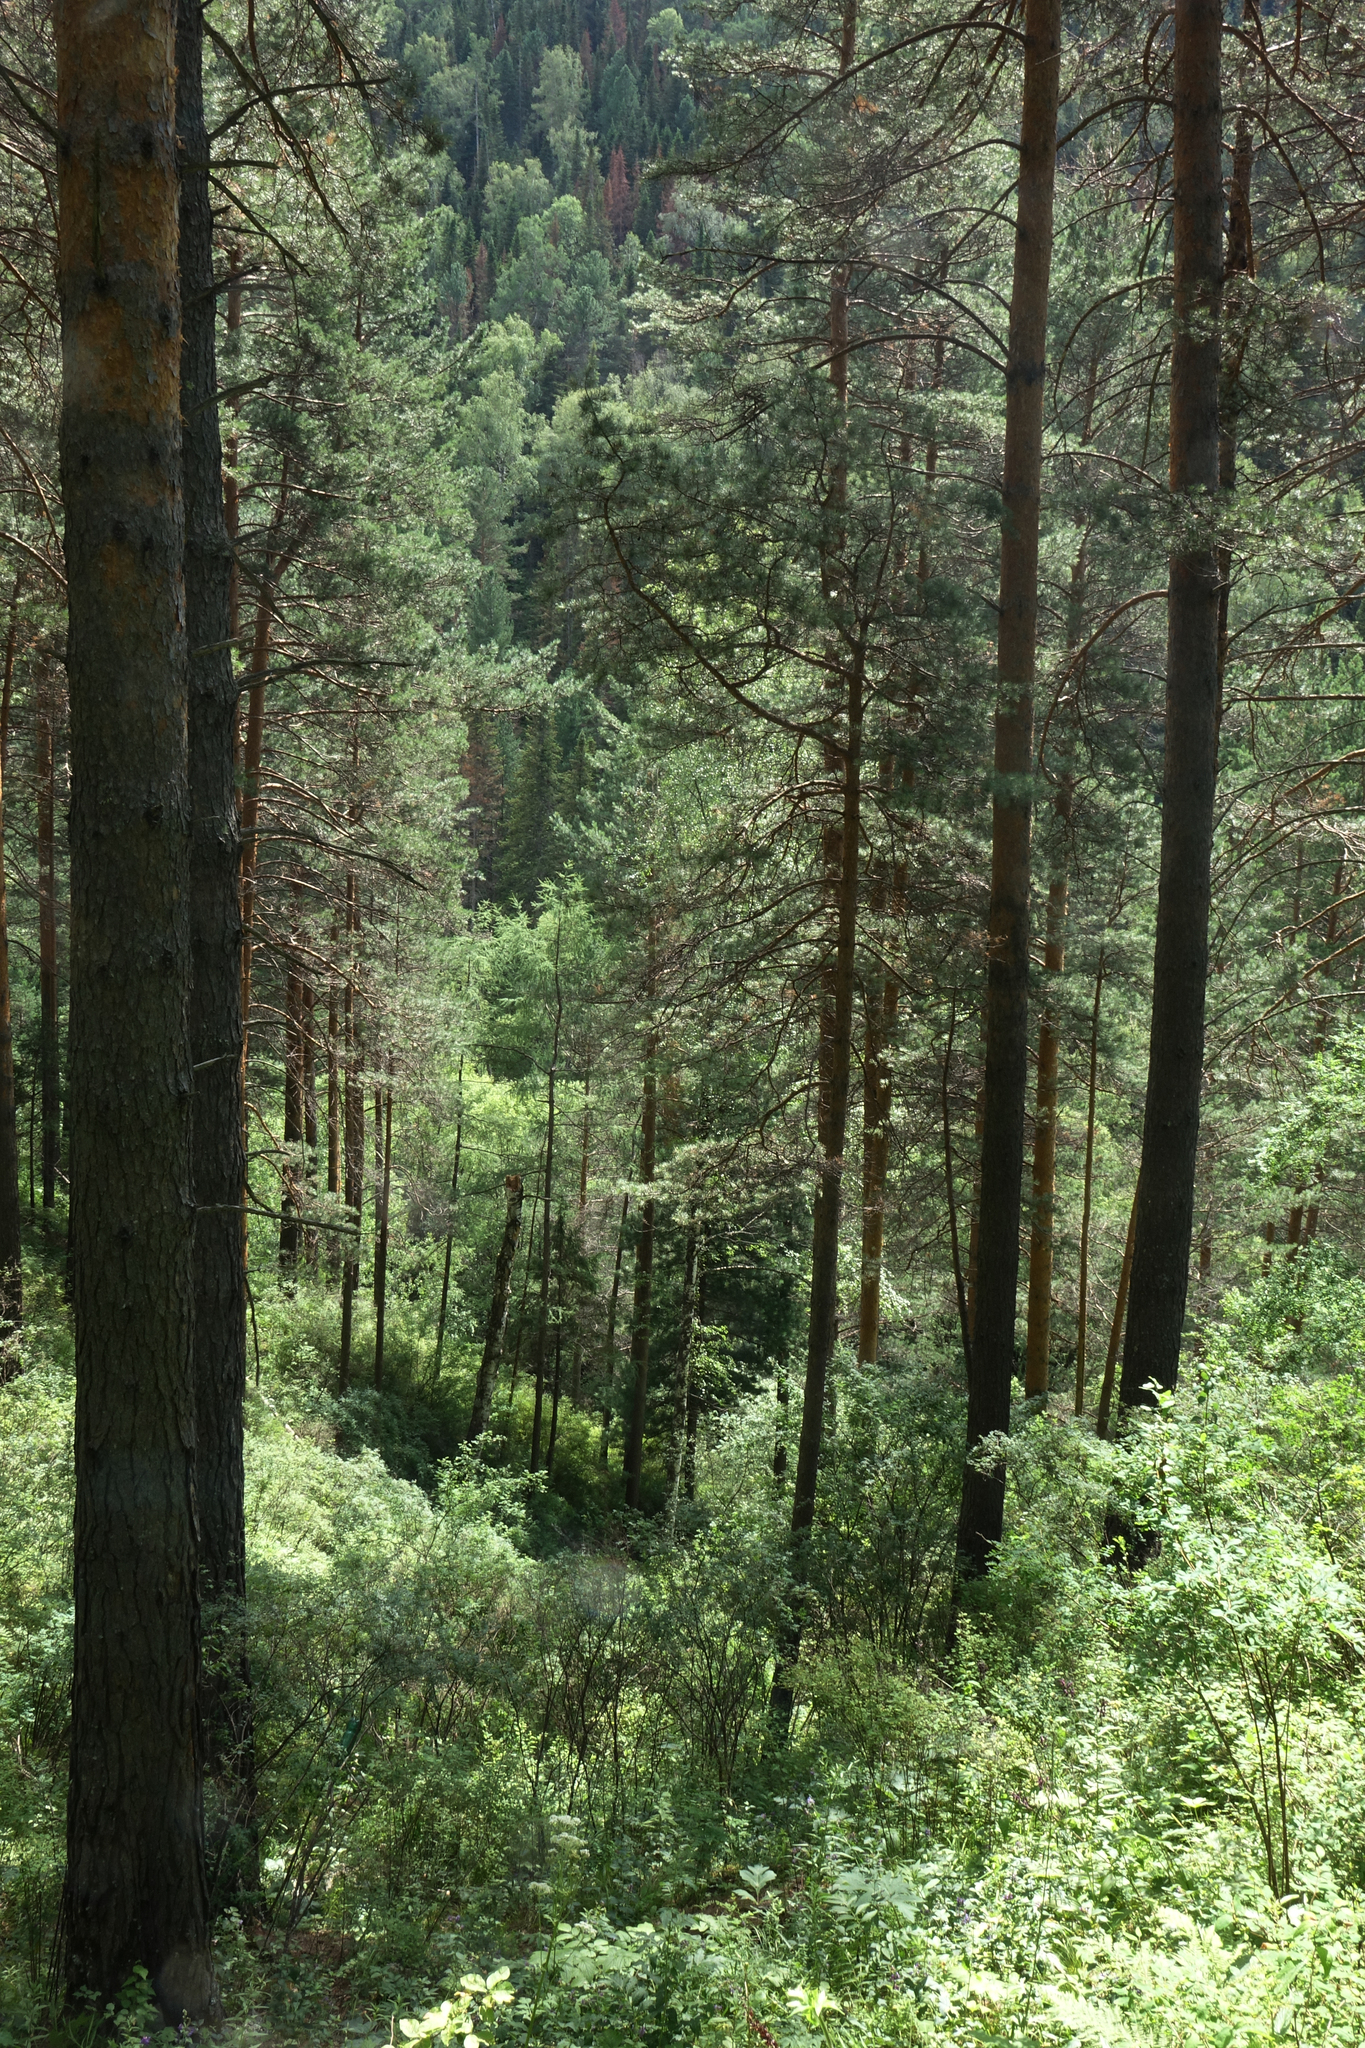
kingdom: Plantae
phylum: Tracheophyta
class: Pinopsida
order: Pinales
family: Pinaceae
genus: Pinus
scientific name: Pinus sylvestris
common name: Scots pine
